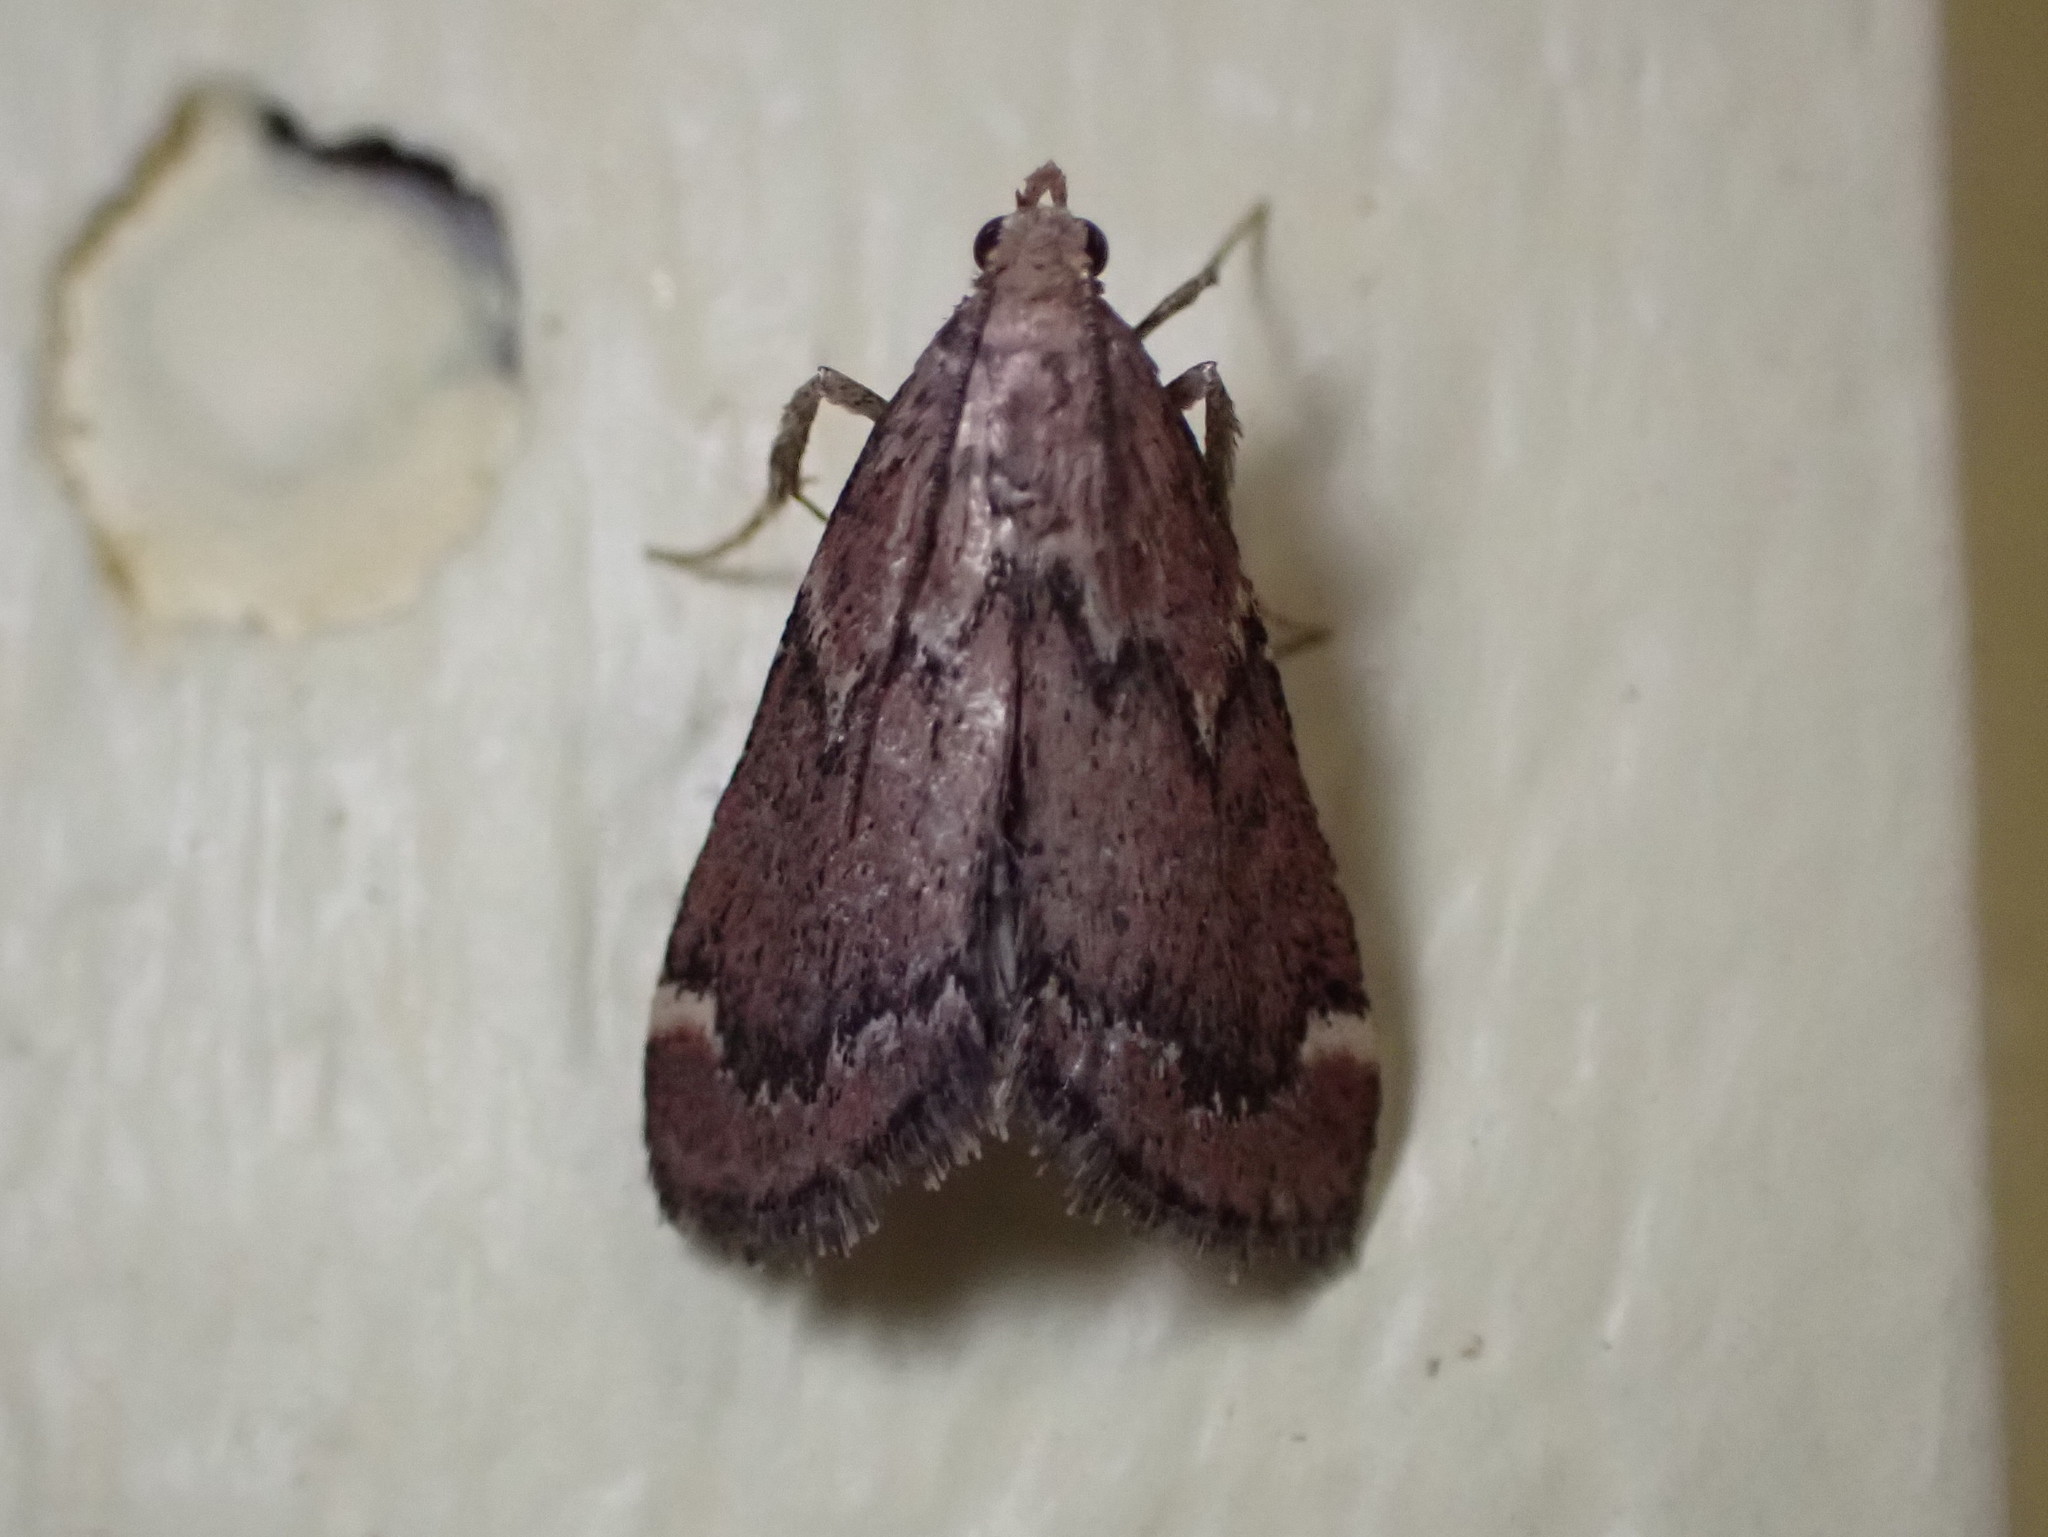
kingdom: Animalia
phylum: Arthropoda
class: Insecta
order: Lepidoptera
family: Pyralidae
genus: Hypsopygia
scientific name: Hypsopygia intermedialis
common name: Red-shawled moth
